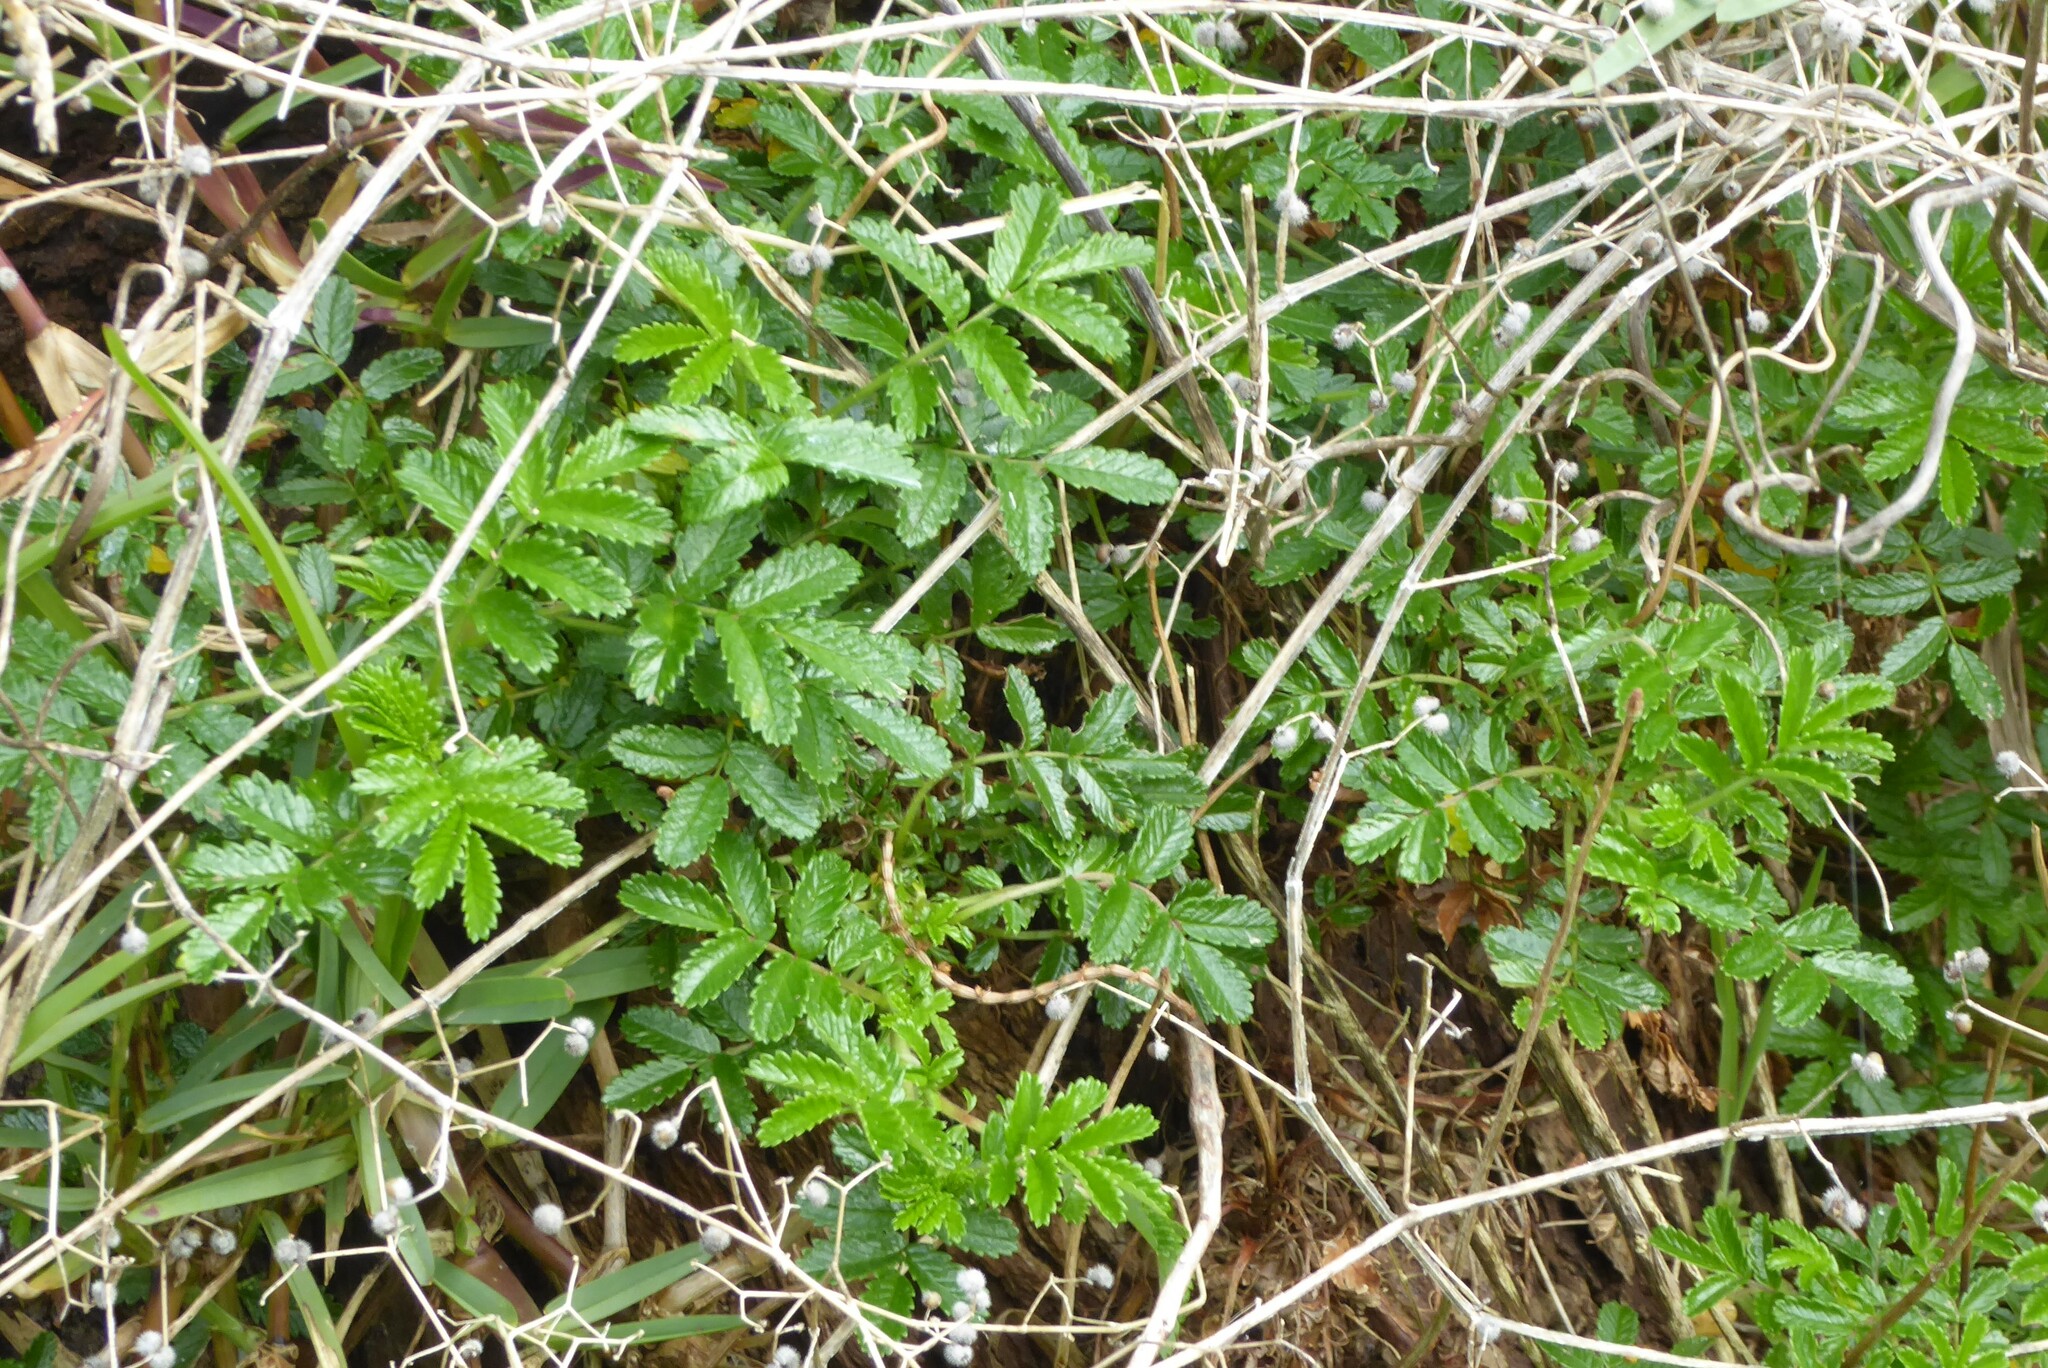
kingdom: Plantae
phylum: Tracheophyta
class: Magnoliopsida
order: Rosales
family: Rosaceae
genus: Acaena
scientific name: Acaena novae-zelandiae
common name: Pirri-pirri-bur
